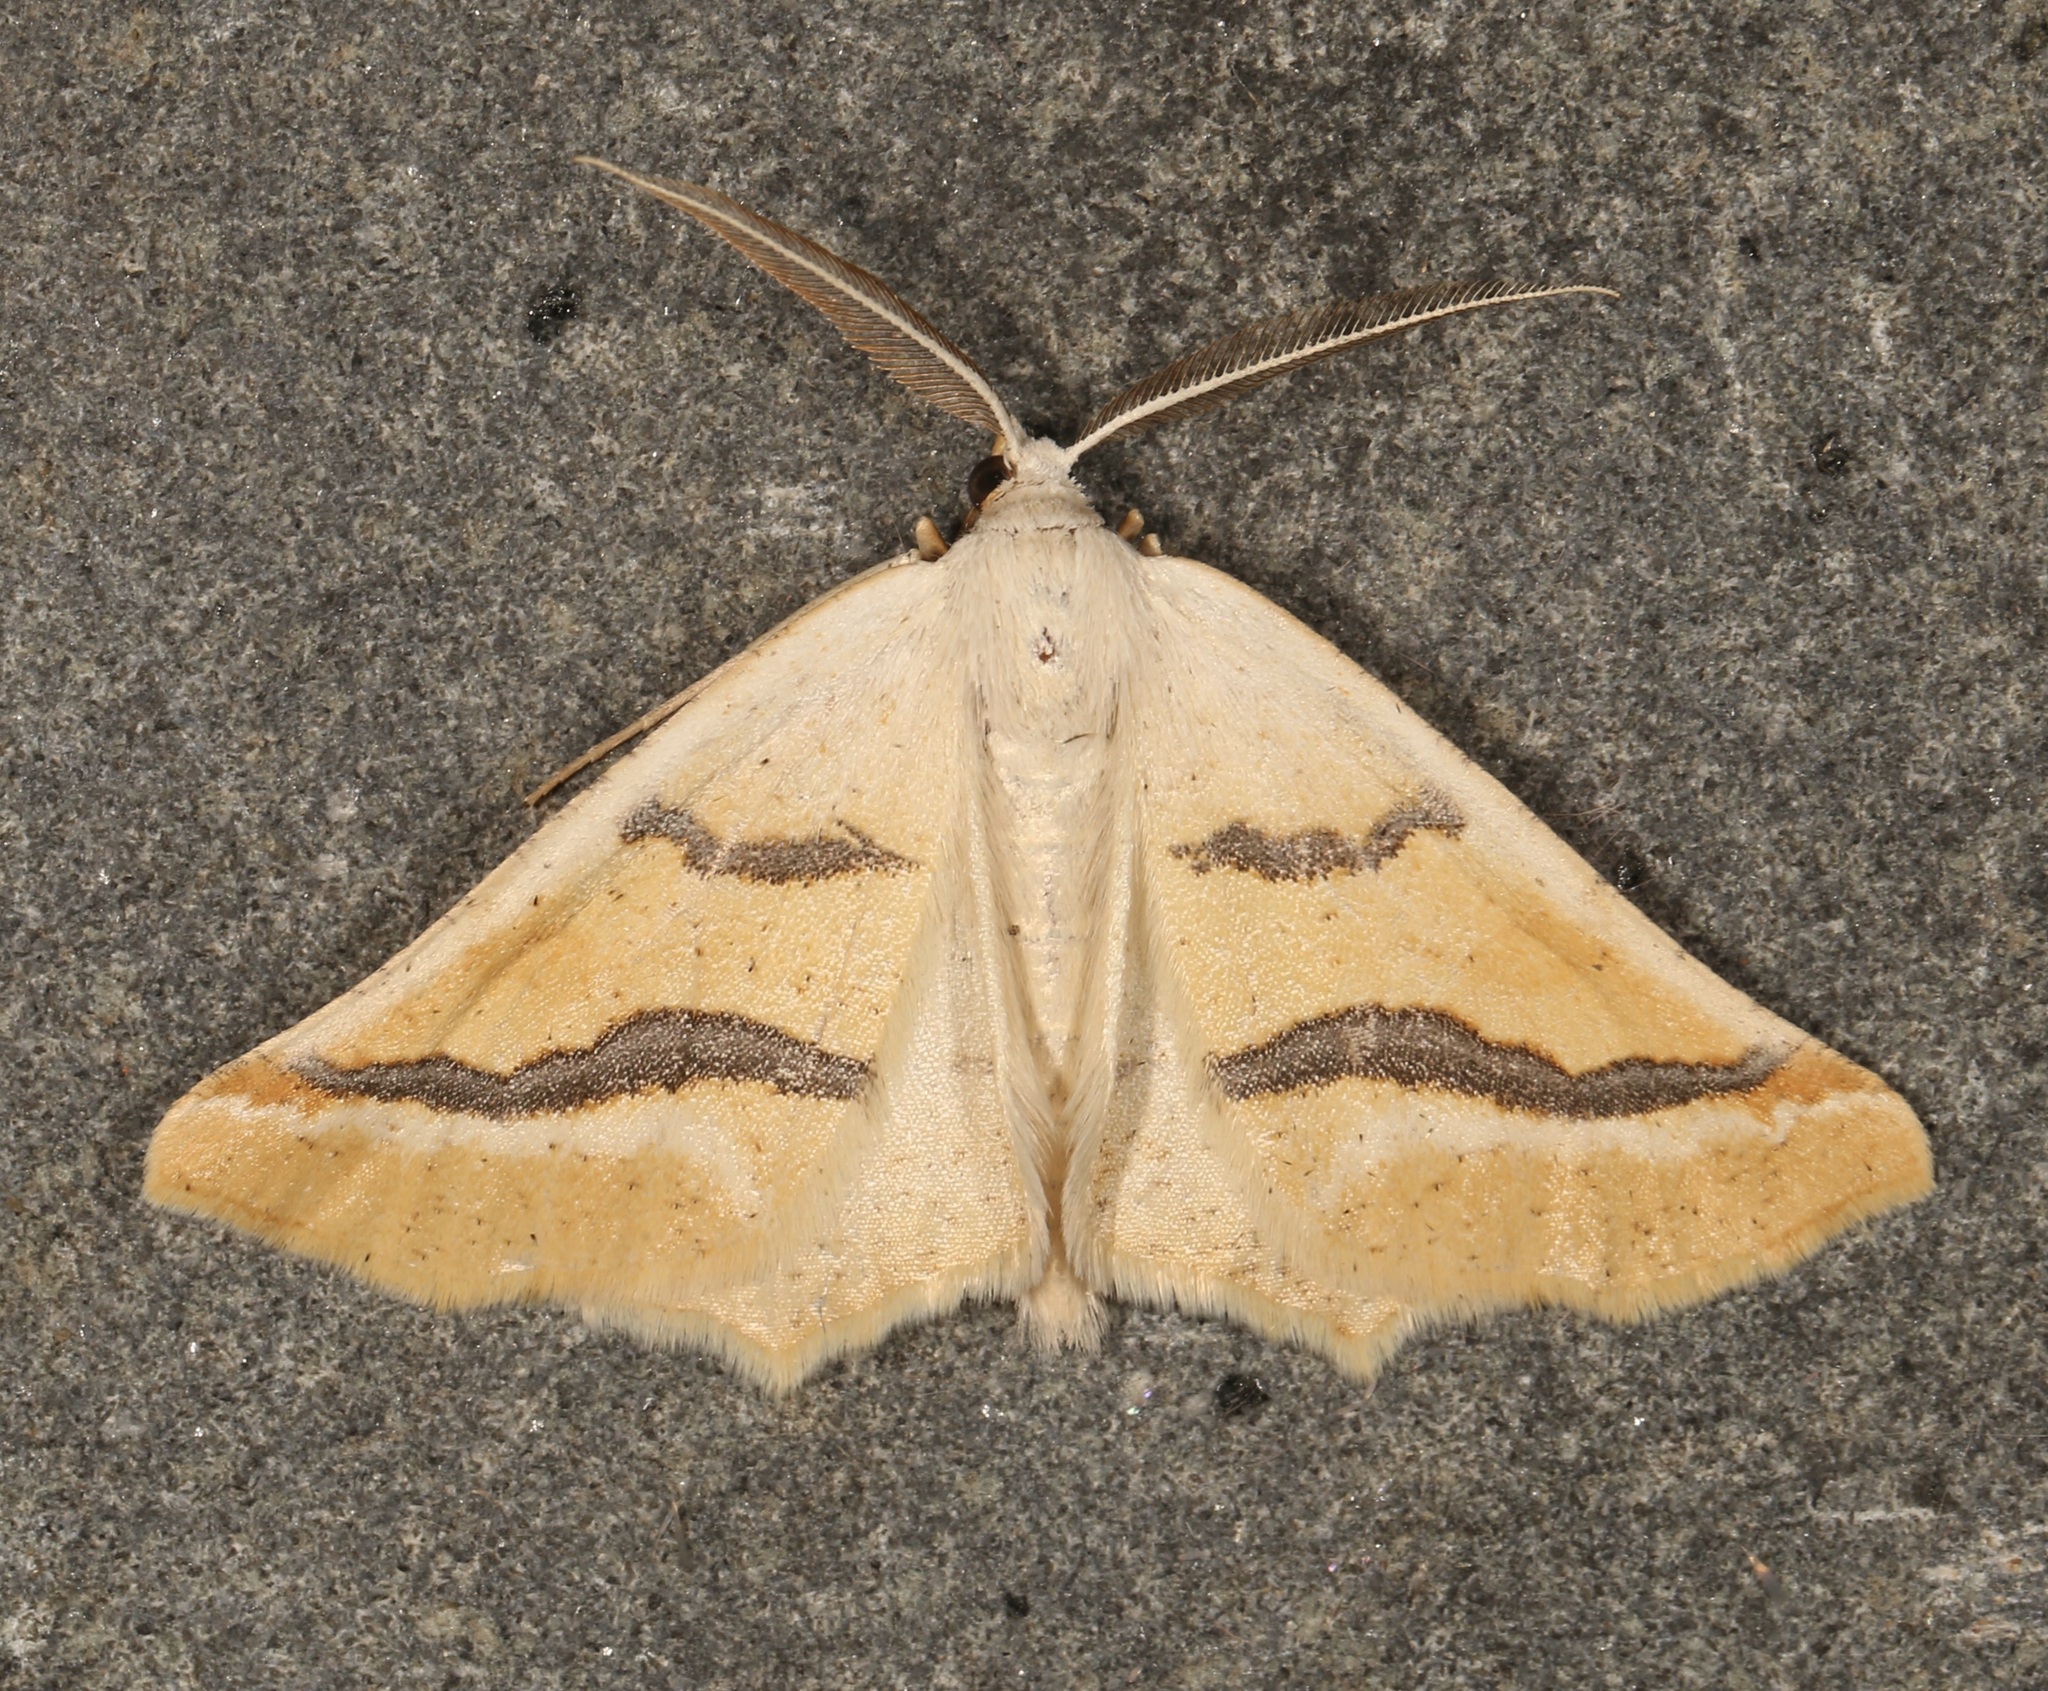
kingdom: Animalia
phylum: Arthropoda
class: Insecta
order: Lepidoptera
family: Geometridae
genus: Eriplatymetra
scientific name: Eriplatymetra coloradaria
